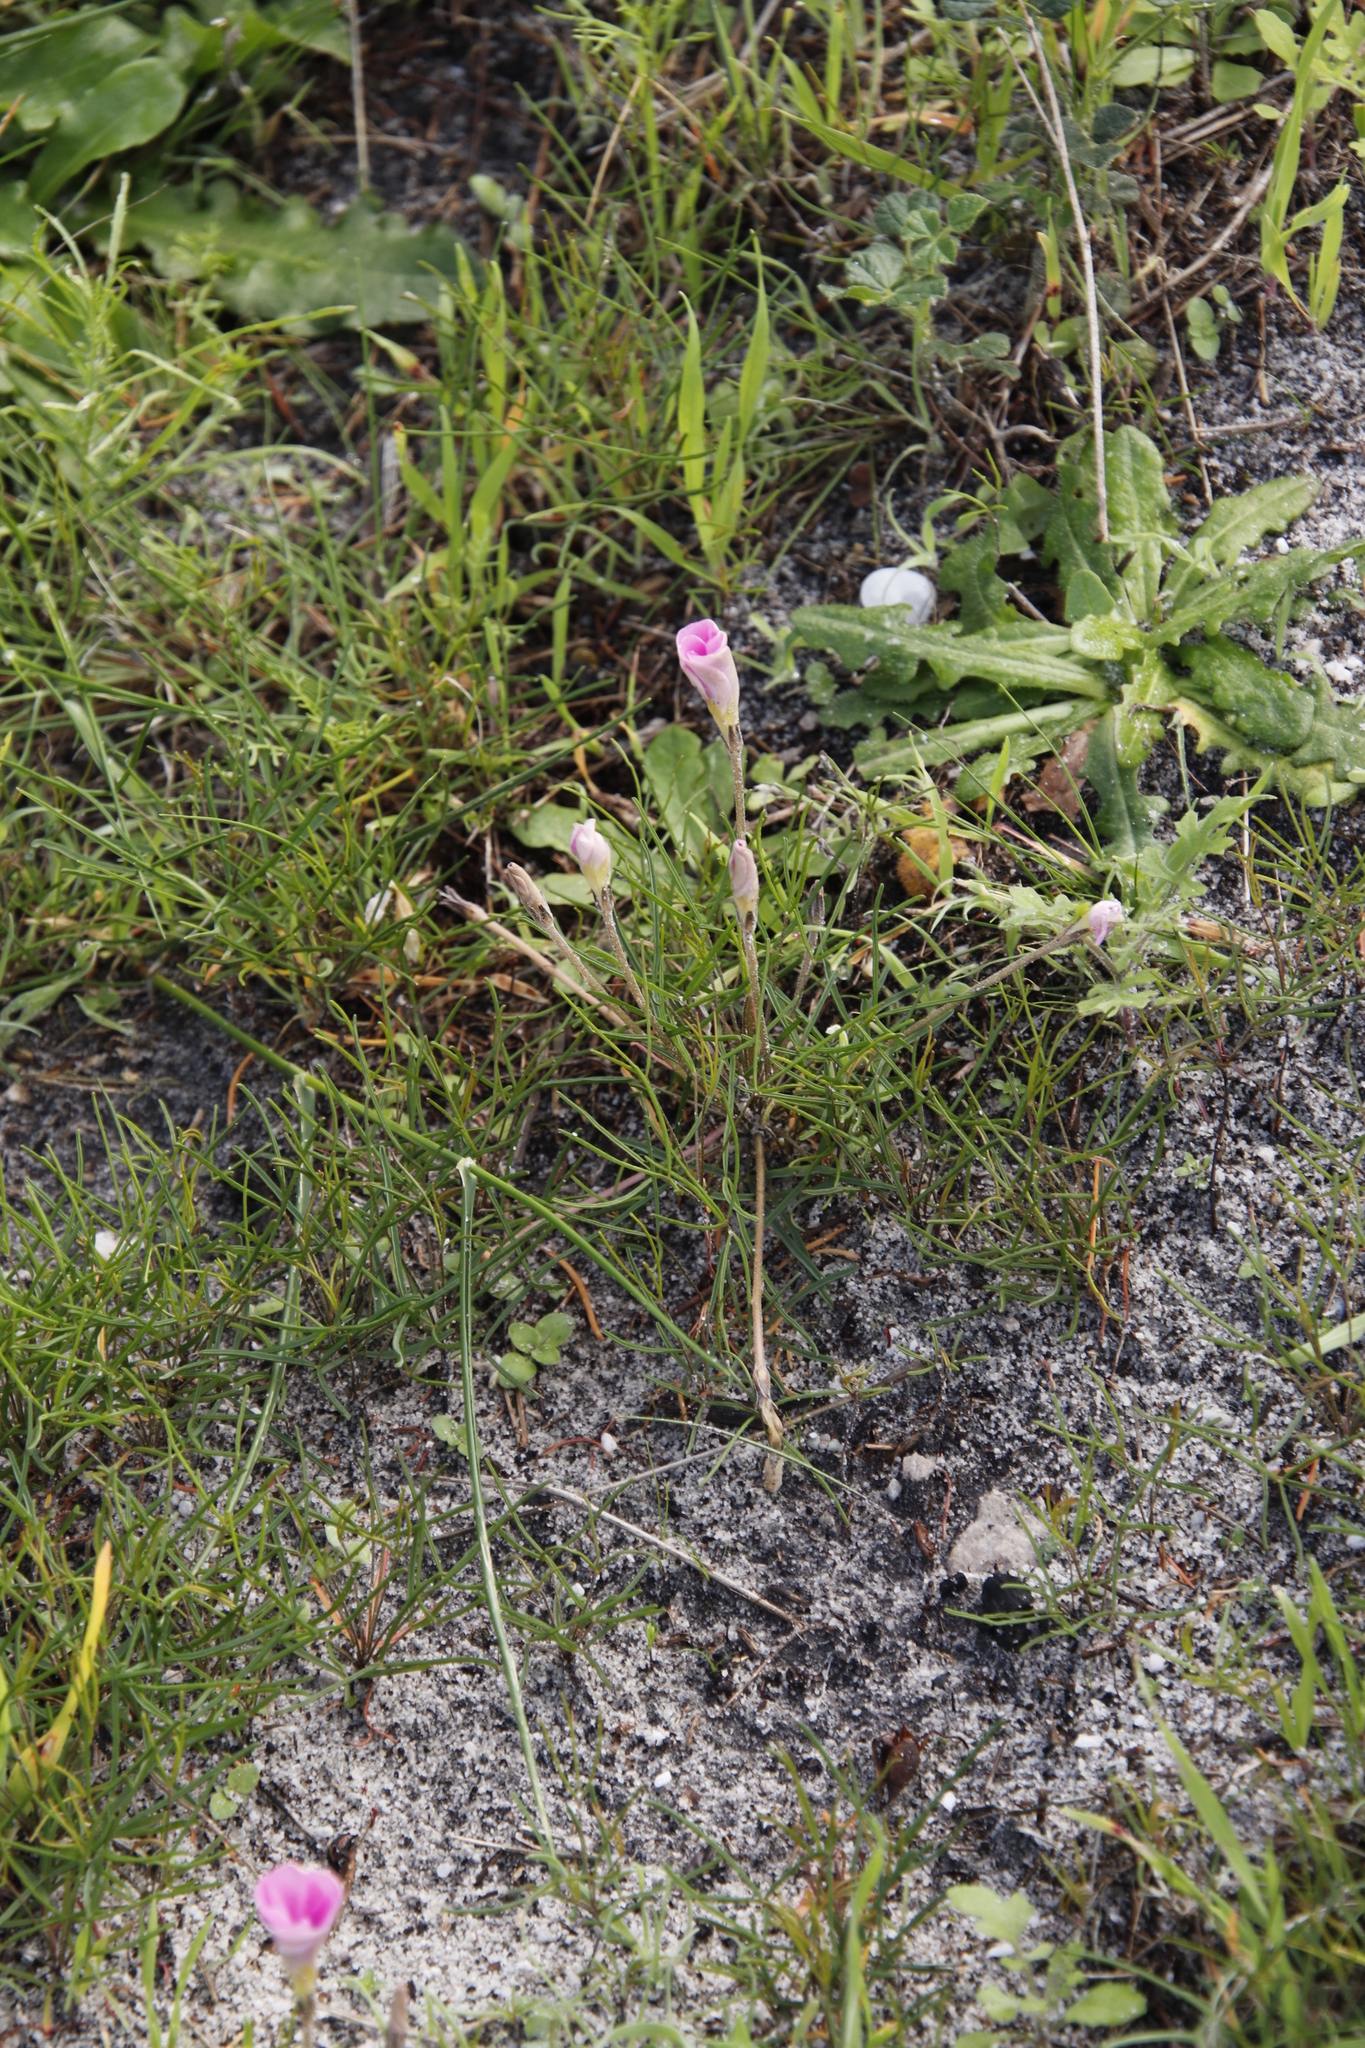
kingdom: Plantae
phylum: Tracheophyta
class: Magnoliopsida
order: Oxalidales
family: Oxalidaceae
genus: Oxalis
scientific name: Oxalis polyphylla
